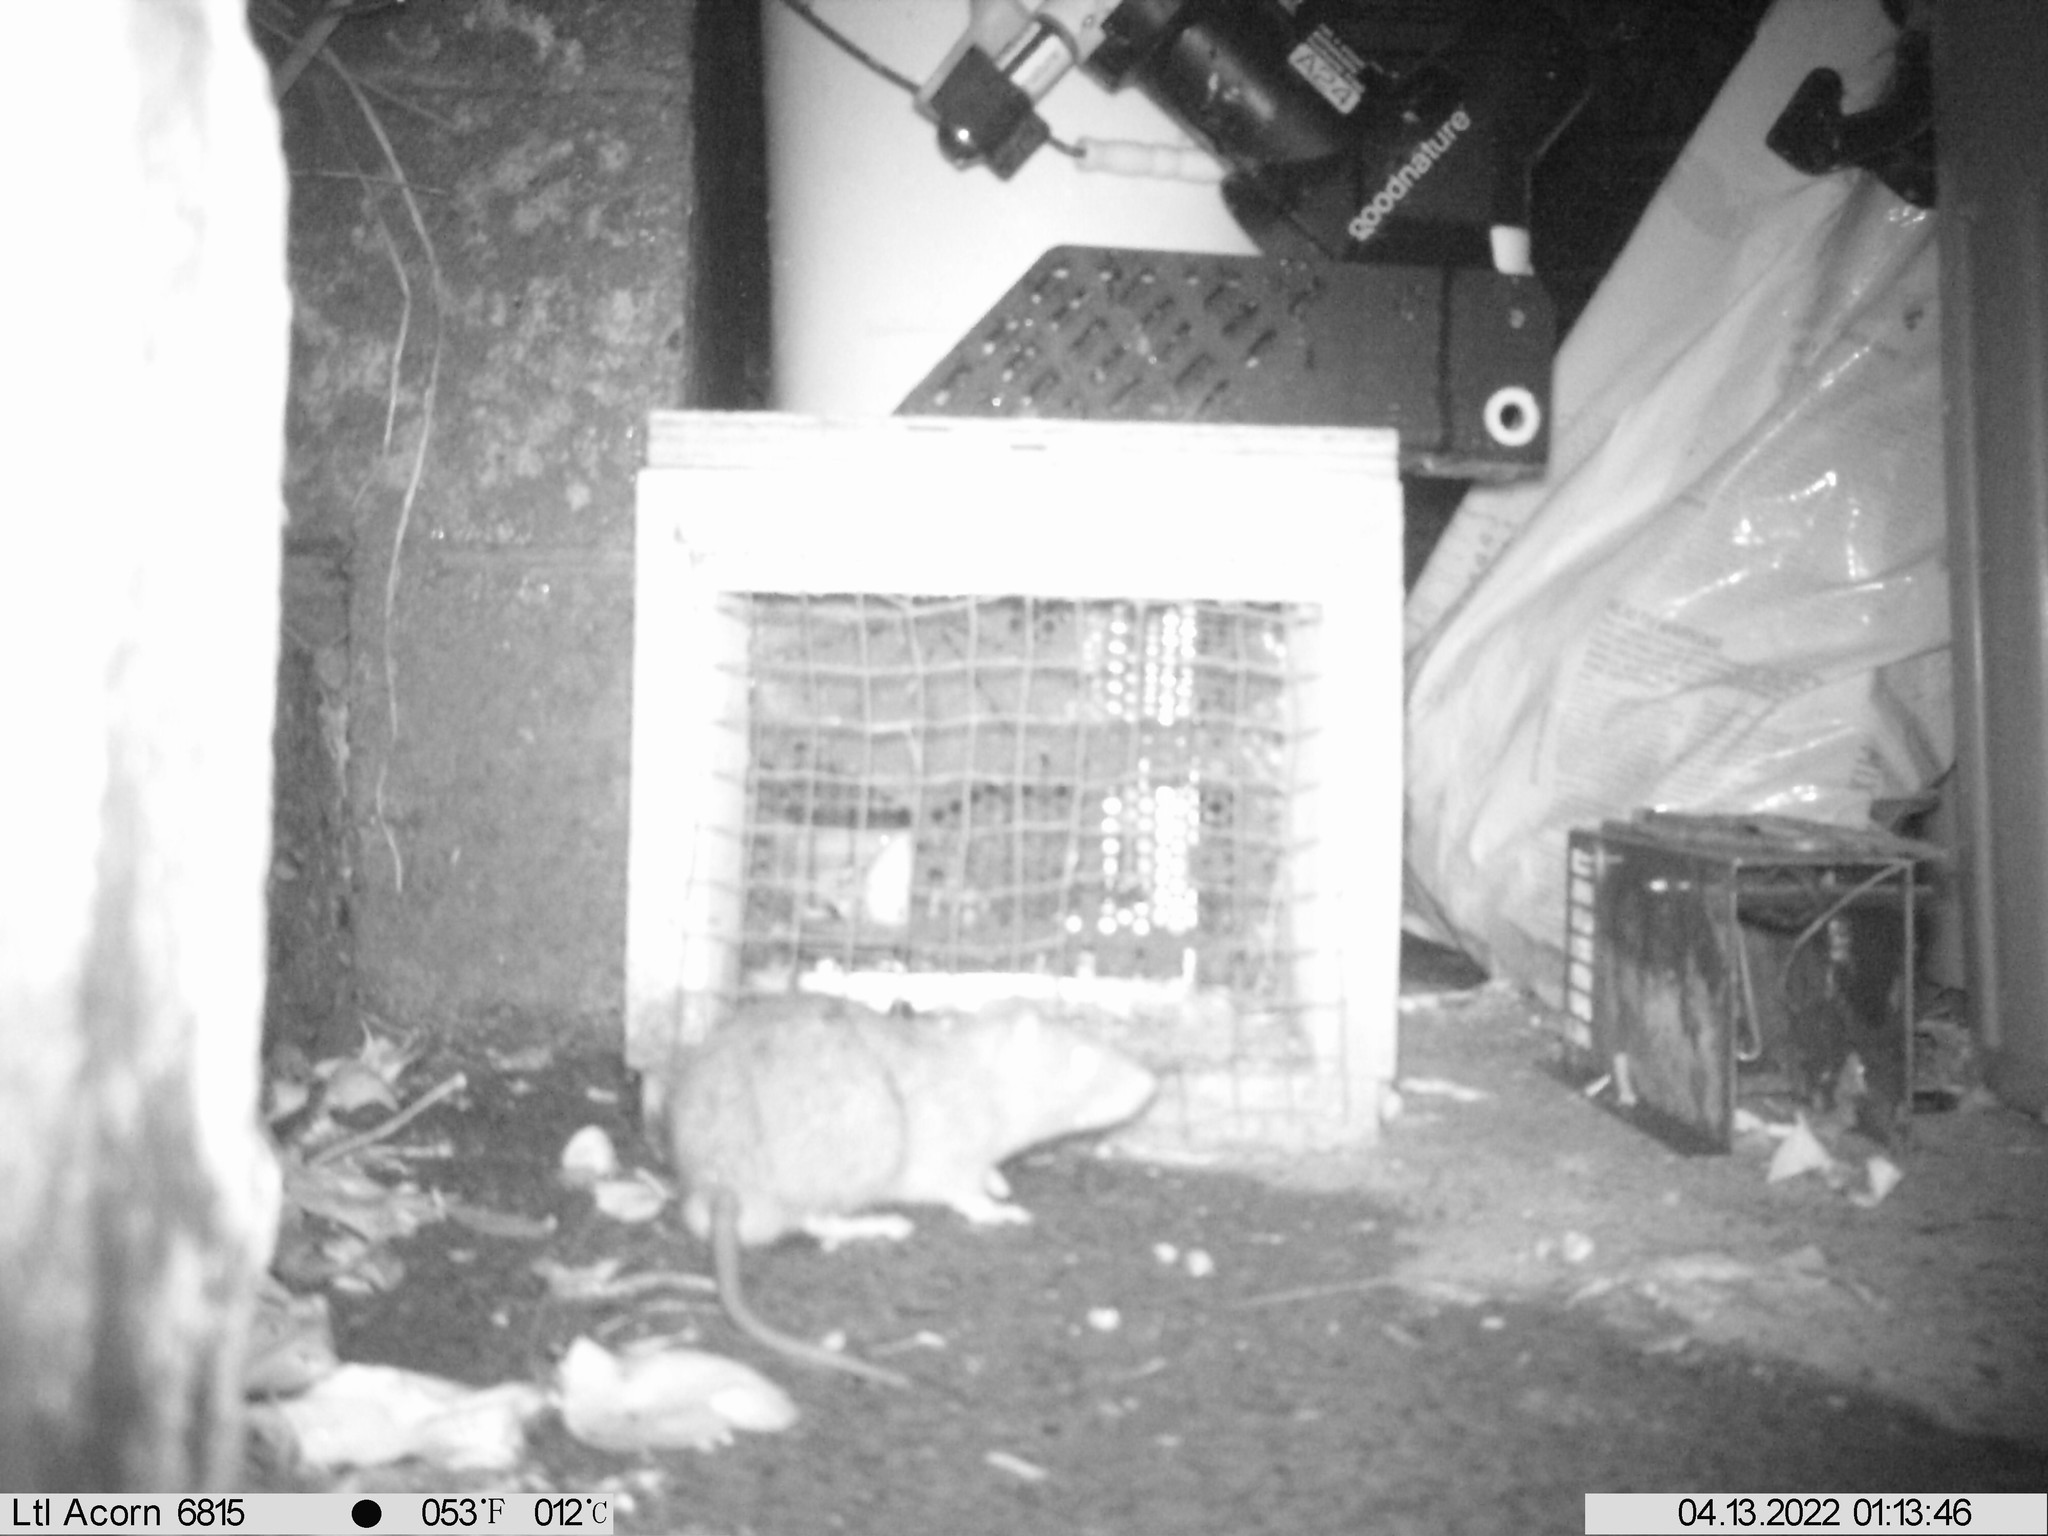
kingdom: Animalia
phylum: Chordata
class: Mammalia
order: Rodentia
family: Muridae
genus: Rattus
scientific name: Rattus norvegicus
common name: Brown rat
